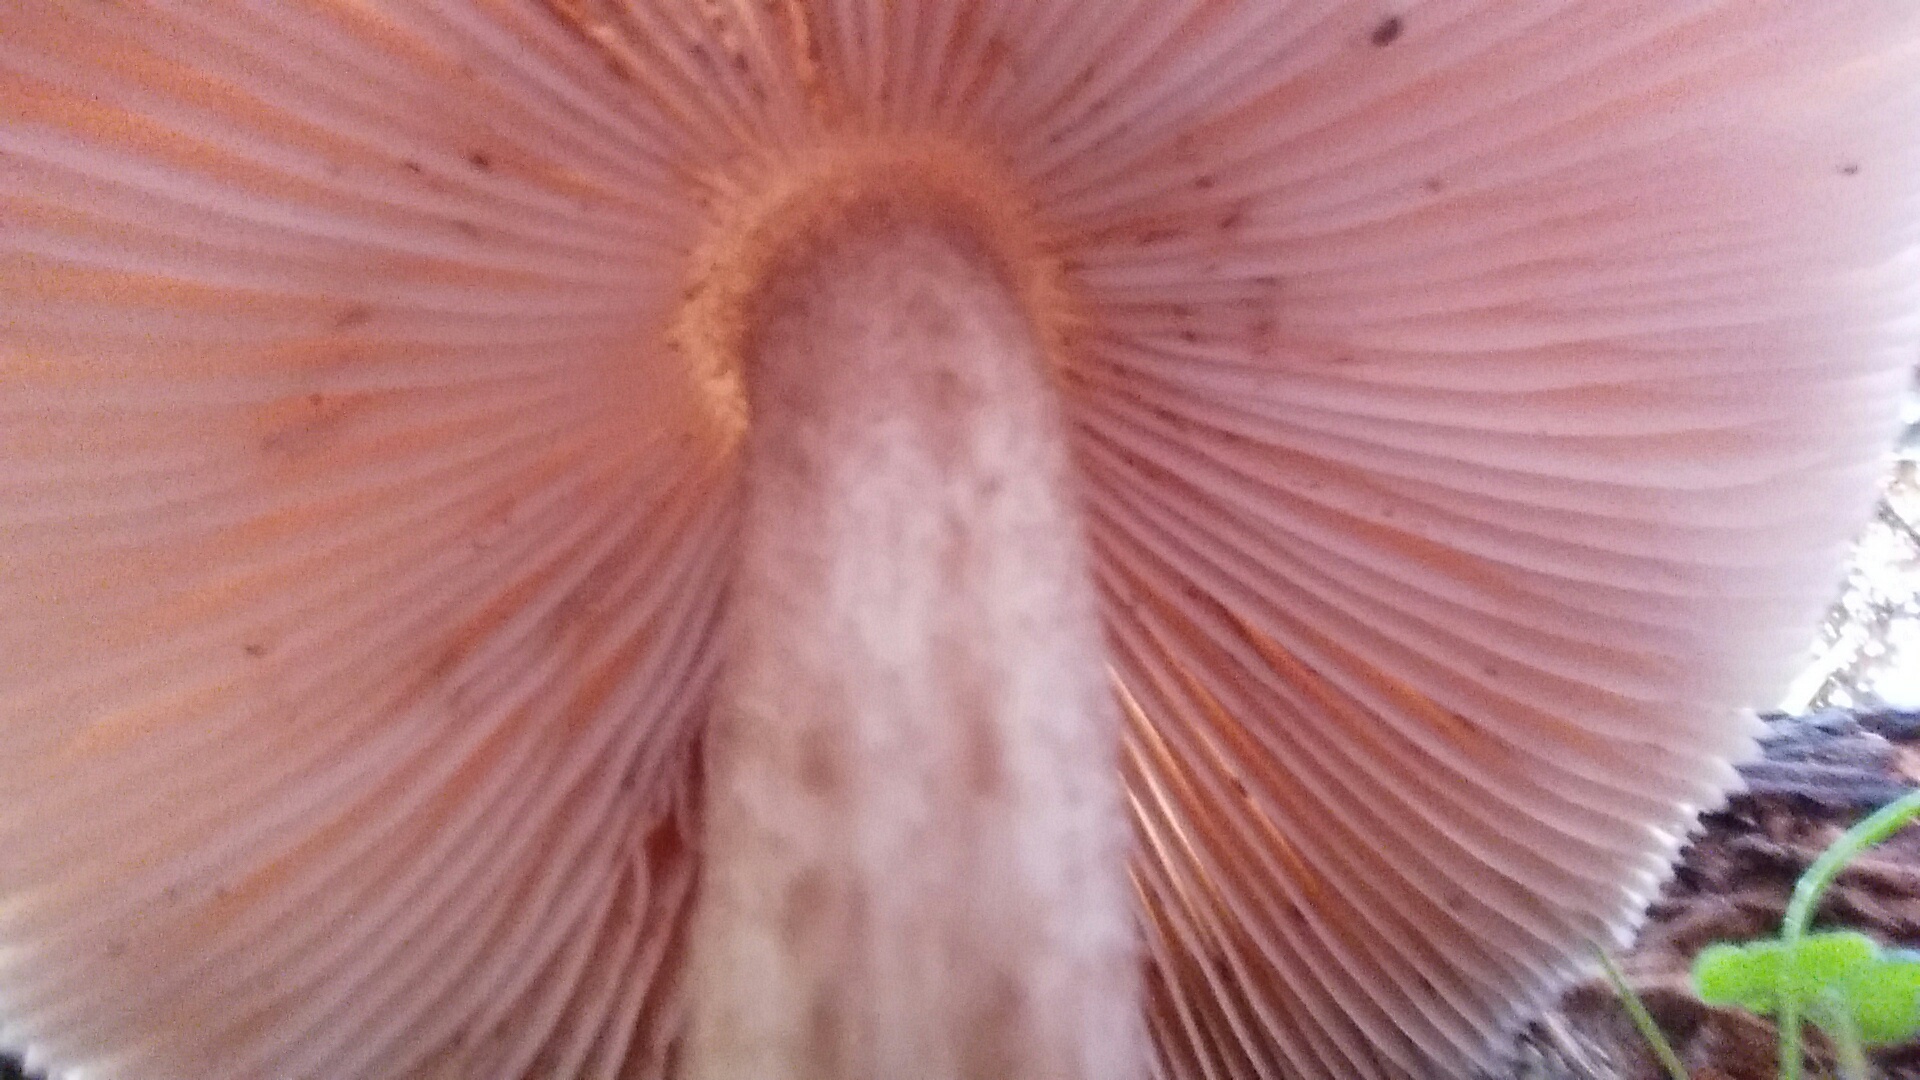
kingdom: Fungi
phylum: Basidiomycota
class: Agaricomycetes
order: Agaricales
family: Pluteaceae
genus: Pluteus
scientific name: Pluteus cervinus
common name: Deer shield
